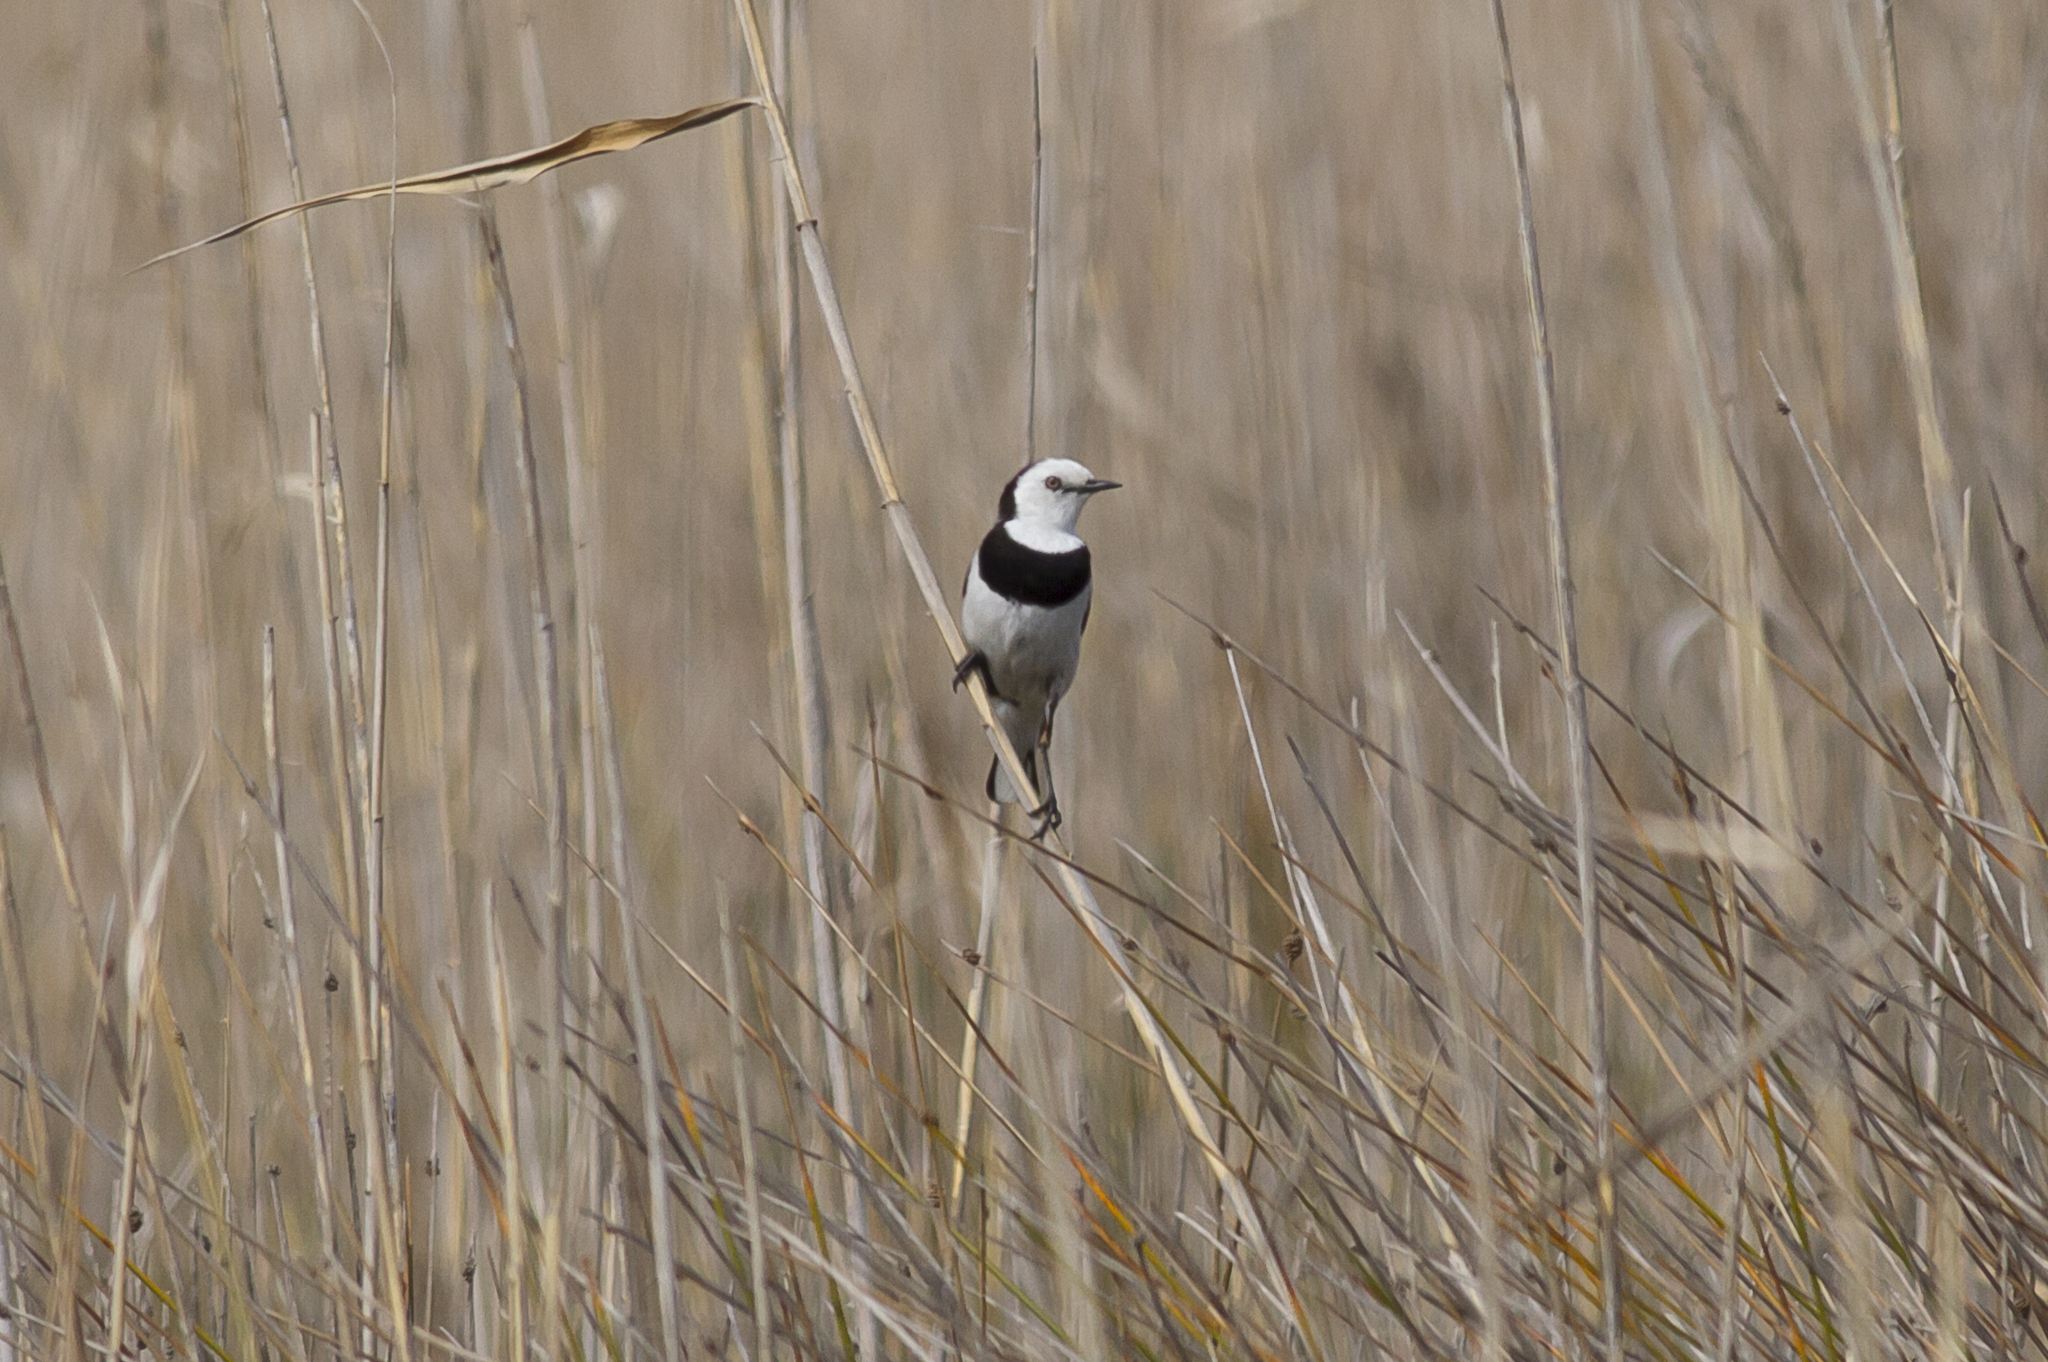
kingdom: Animalia
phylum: Chordata
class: Aves
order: Passeriformes
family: Meliphagidae
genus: Epthianura
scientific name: Epthianura albifrons
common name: White-fronted chat
